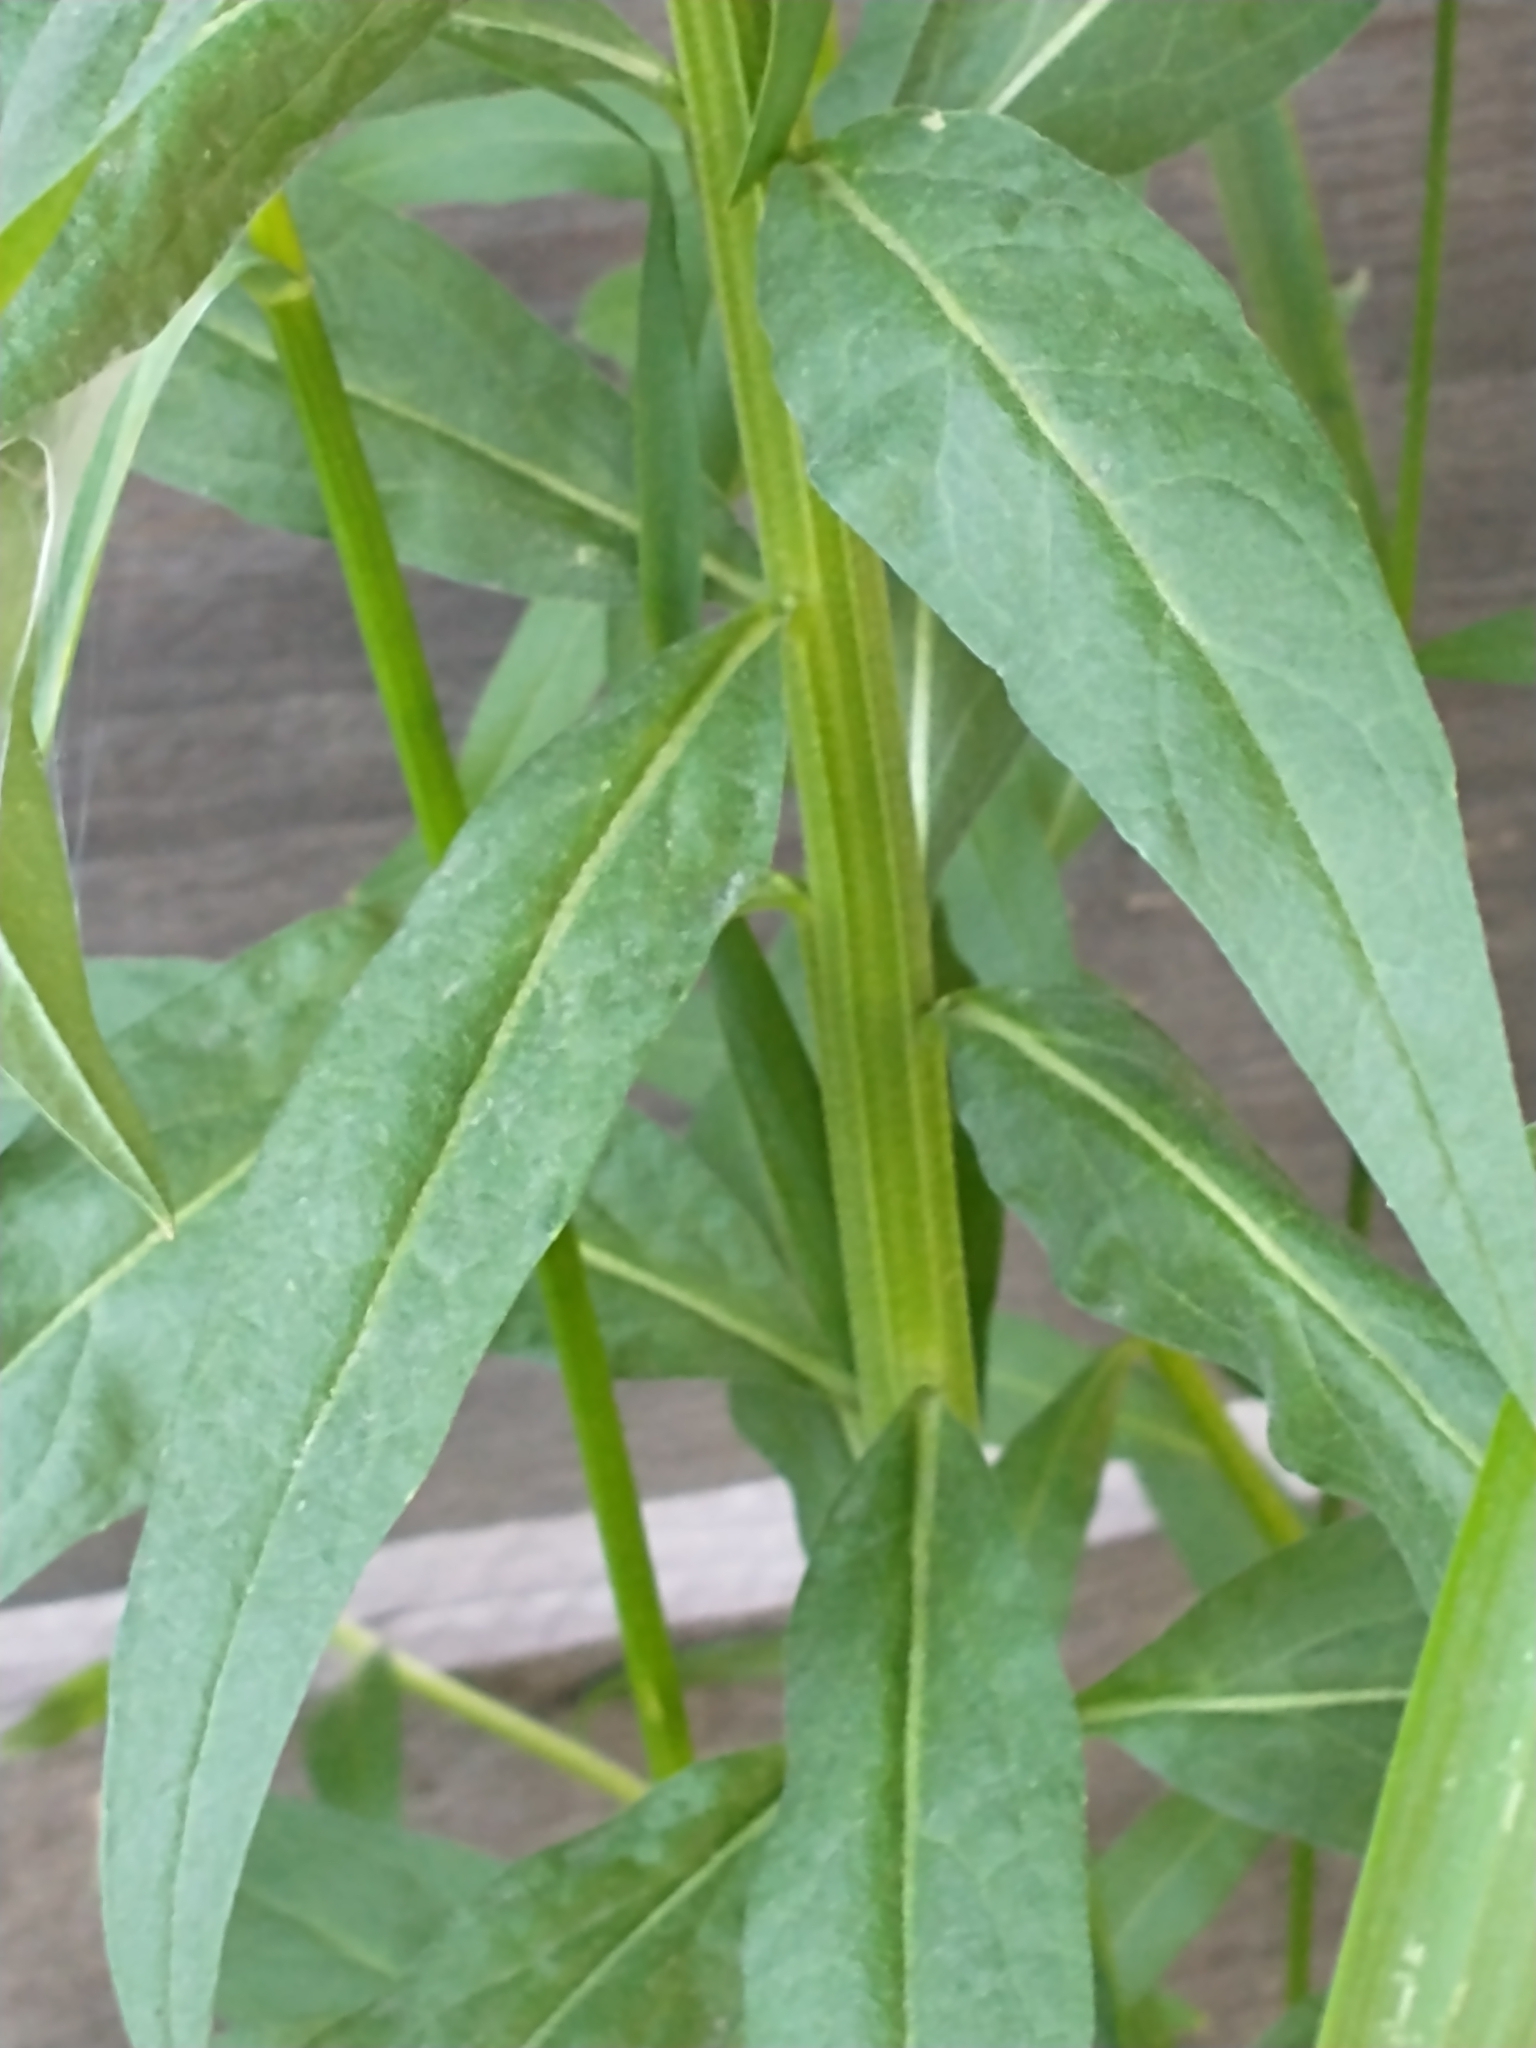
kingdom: Plantae
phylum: Tracheophyta
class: Magnoliopsida
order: Brassicales
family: Brassicaceae
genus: Erysimum
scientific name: Erysimum cheiranthoides
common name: Treacle mustard
